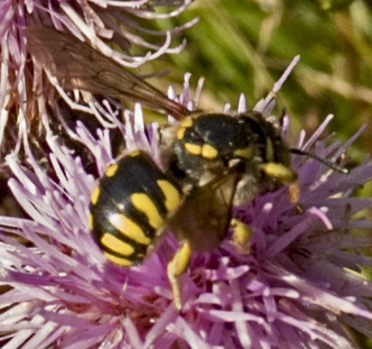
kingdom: Animalia
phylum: Arthropoda
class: Insecta
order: Hymenoptera
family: Megachilidae
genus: Anthidium
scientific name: Anthidium florentinum
